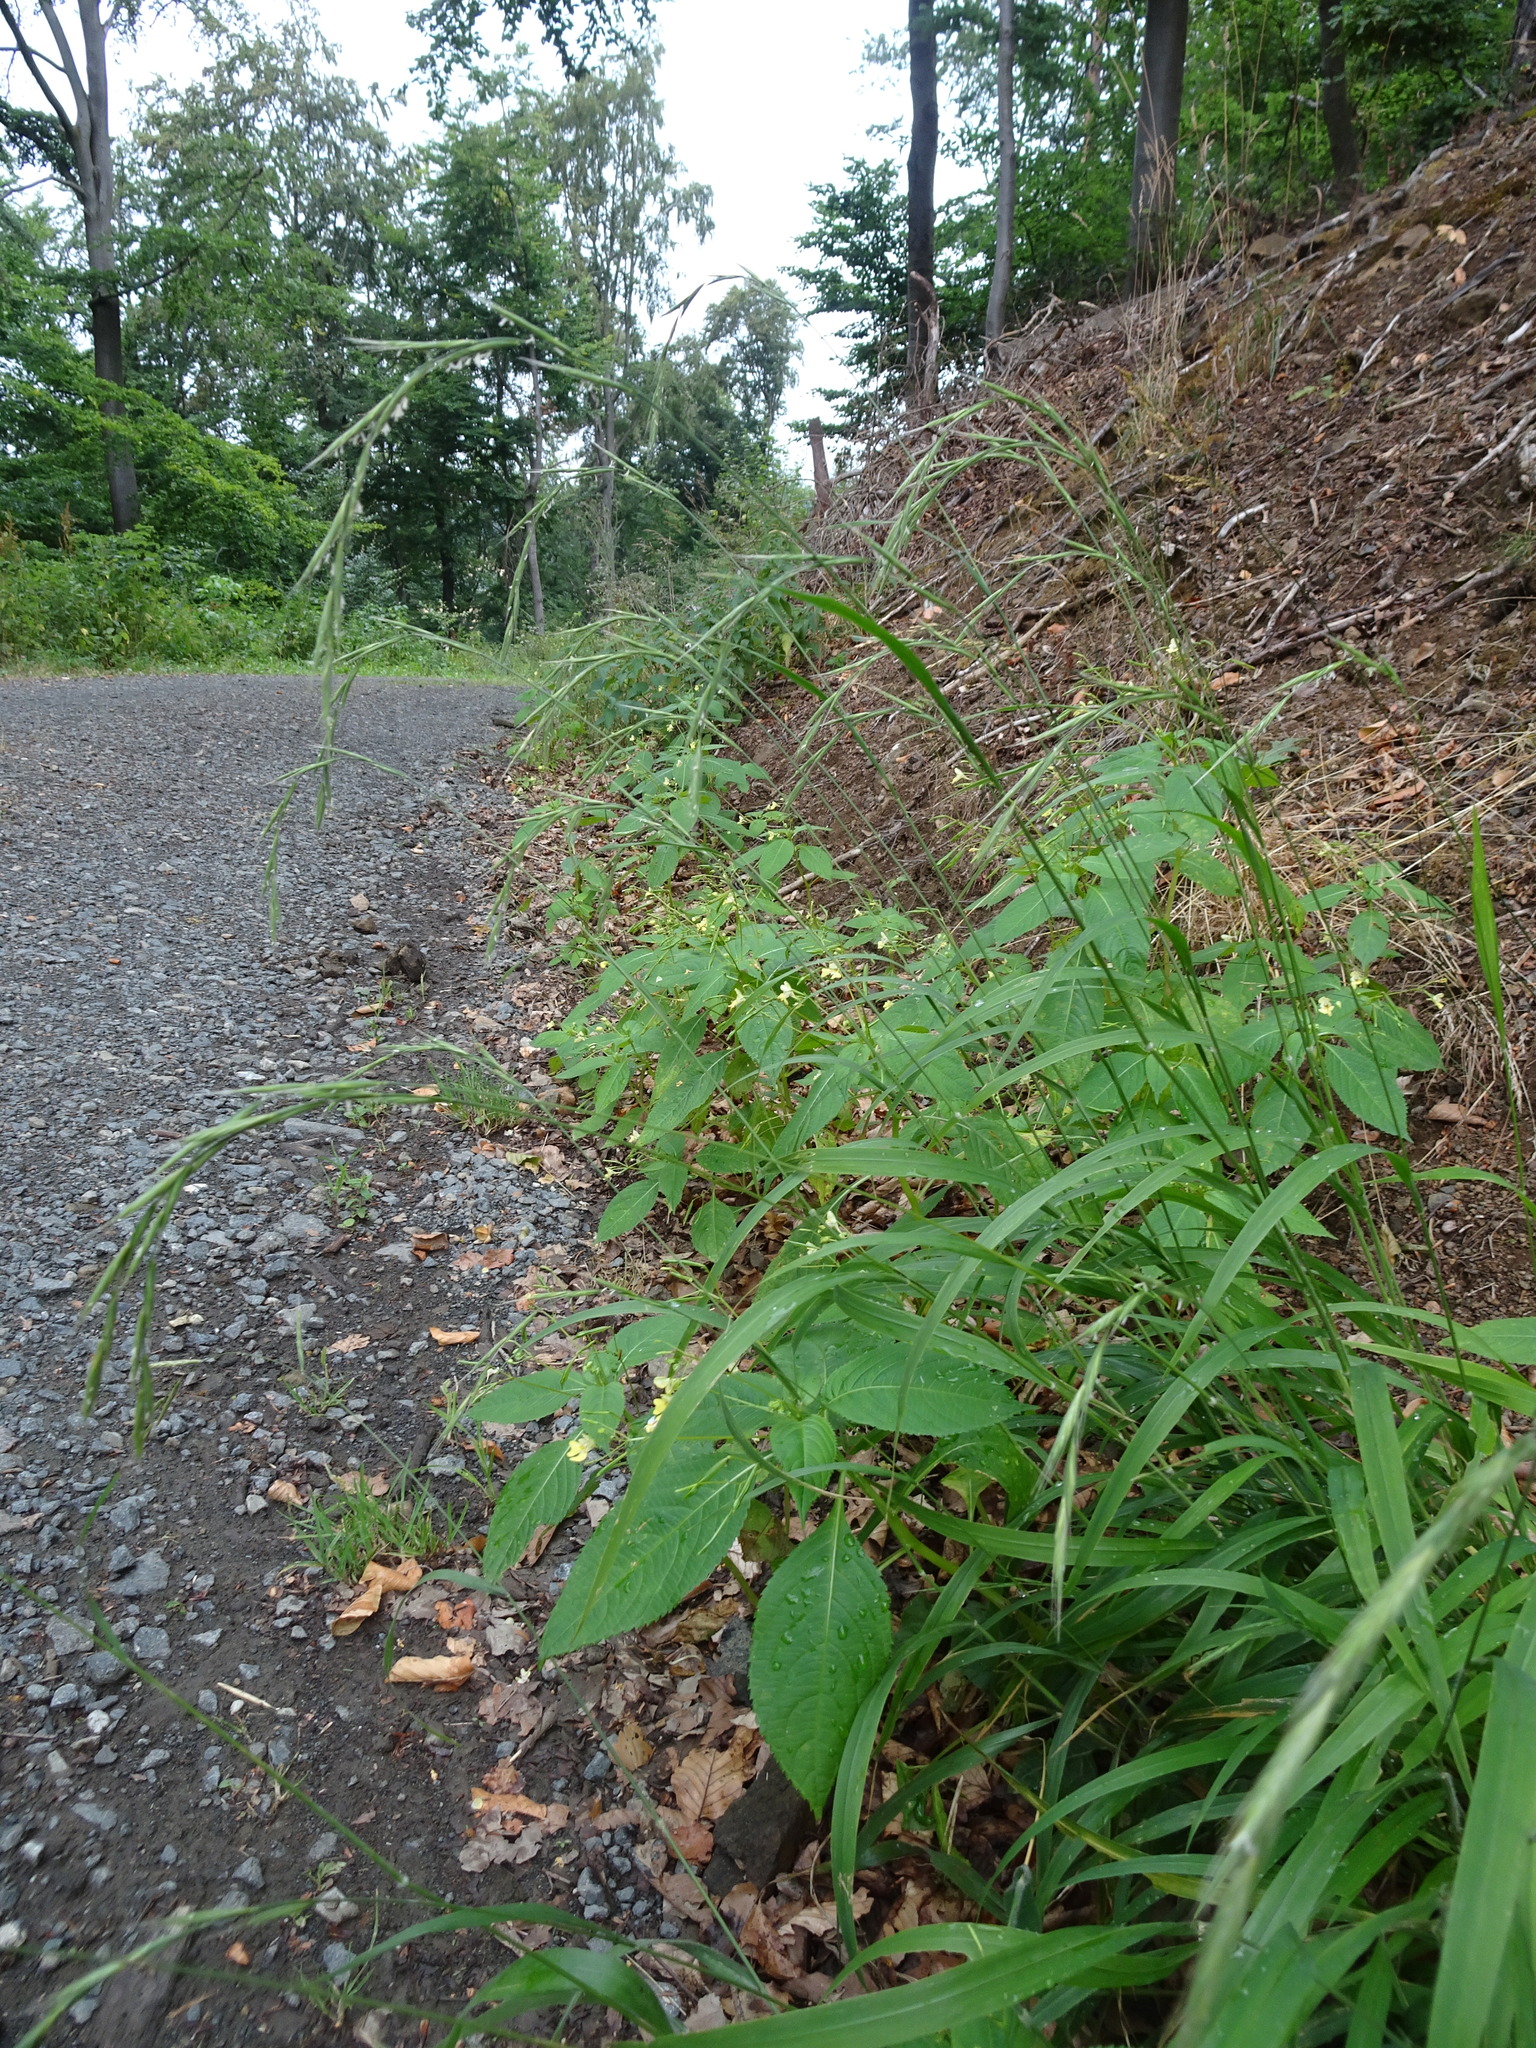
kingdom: Plantae
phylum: Tracheophyta
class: Liliopsida
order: Poales
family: Poaceae
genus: Brachypodium
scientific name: Brachypodium sylvaticum
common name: False-brome
